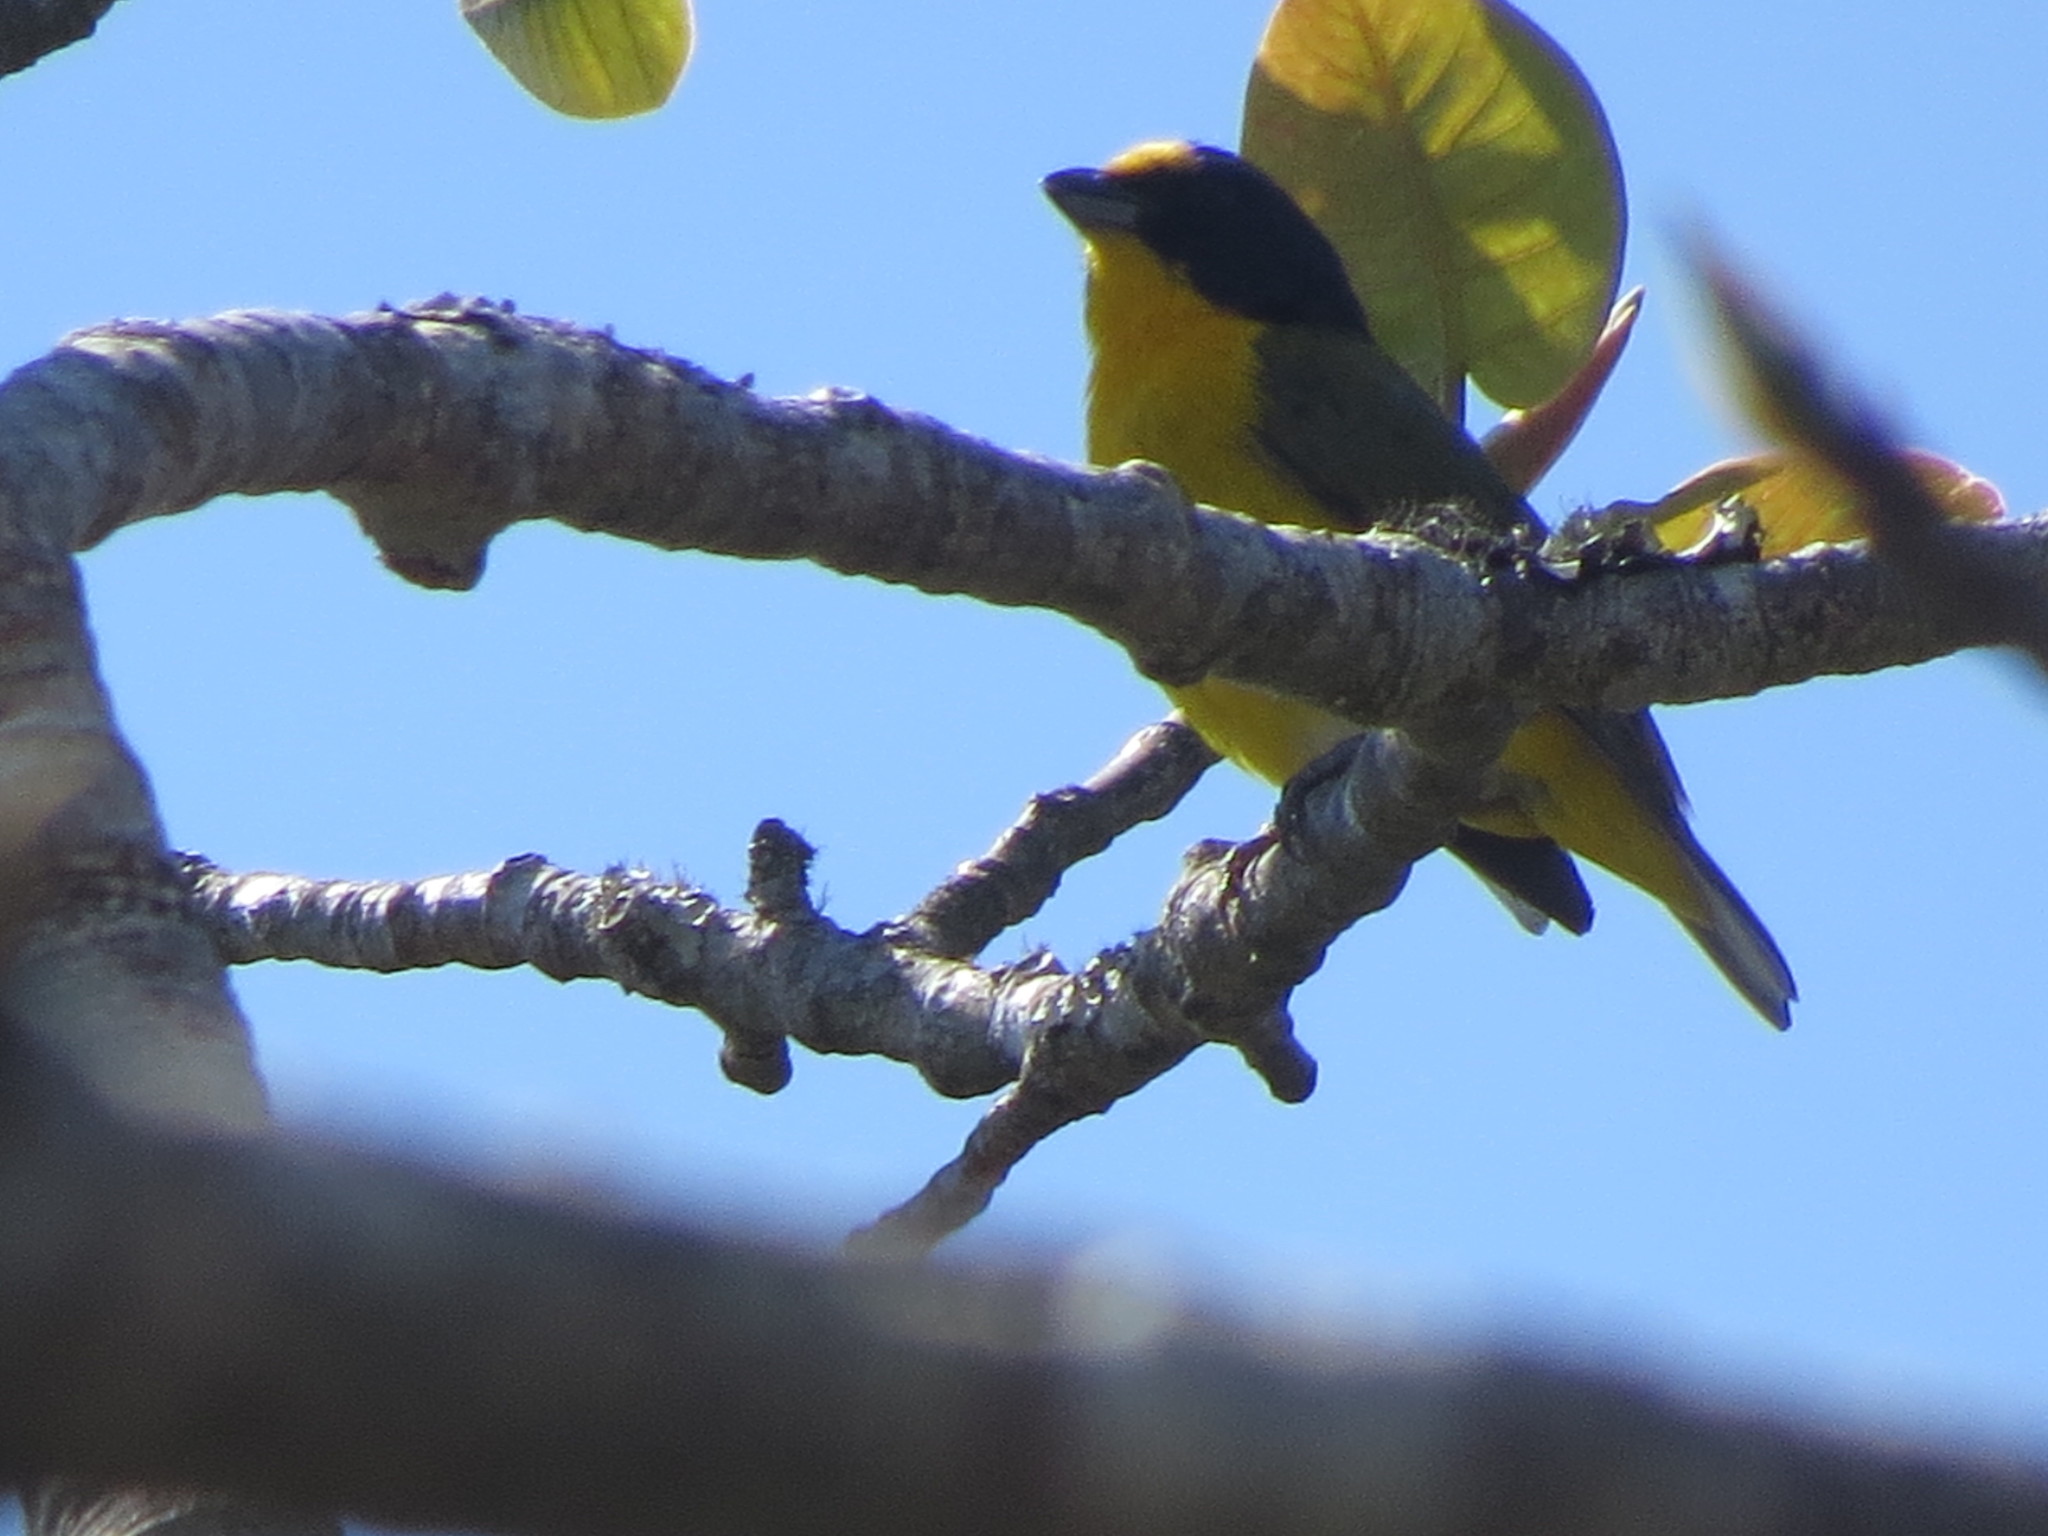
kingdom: Animalia
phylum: Chordata
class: Aves
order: Passeriformes
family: Fringillidae
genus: Euphonia
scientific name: Euphonia hirundinacea
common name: Yellow-throated euphonia
